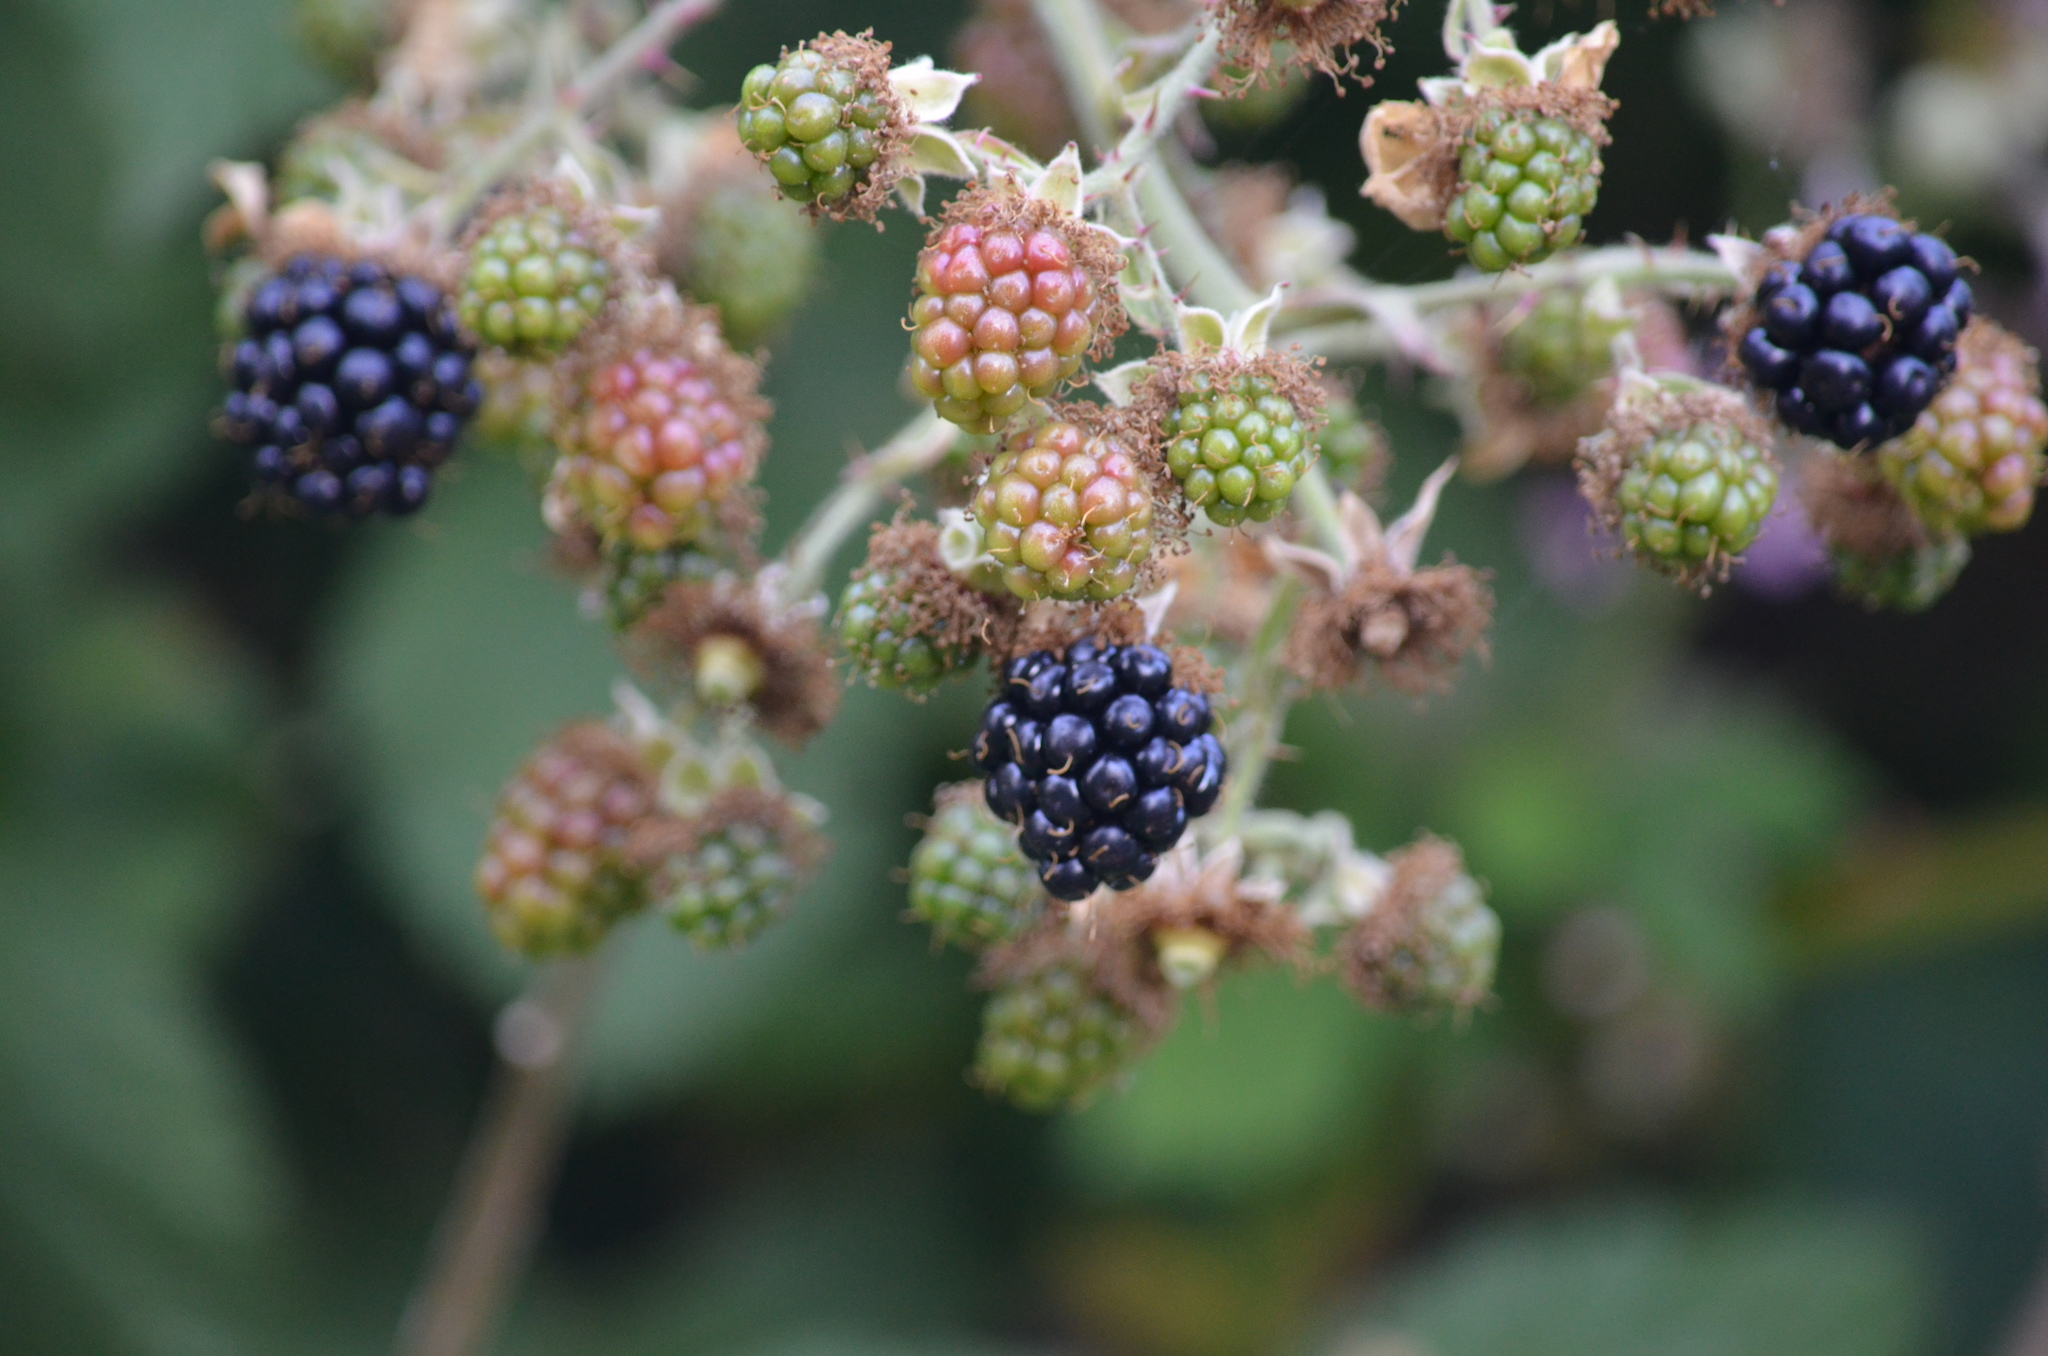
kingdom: Plantae
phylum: Tracheophyta
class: Magnoliopsida
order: Rosales
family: Rosaceae
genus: Rubus
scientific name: Rubus armeniacus
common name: Himalayan blackberry
